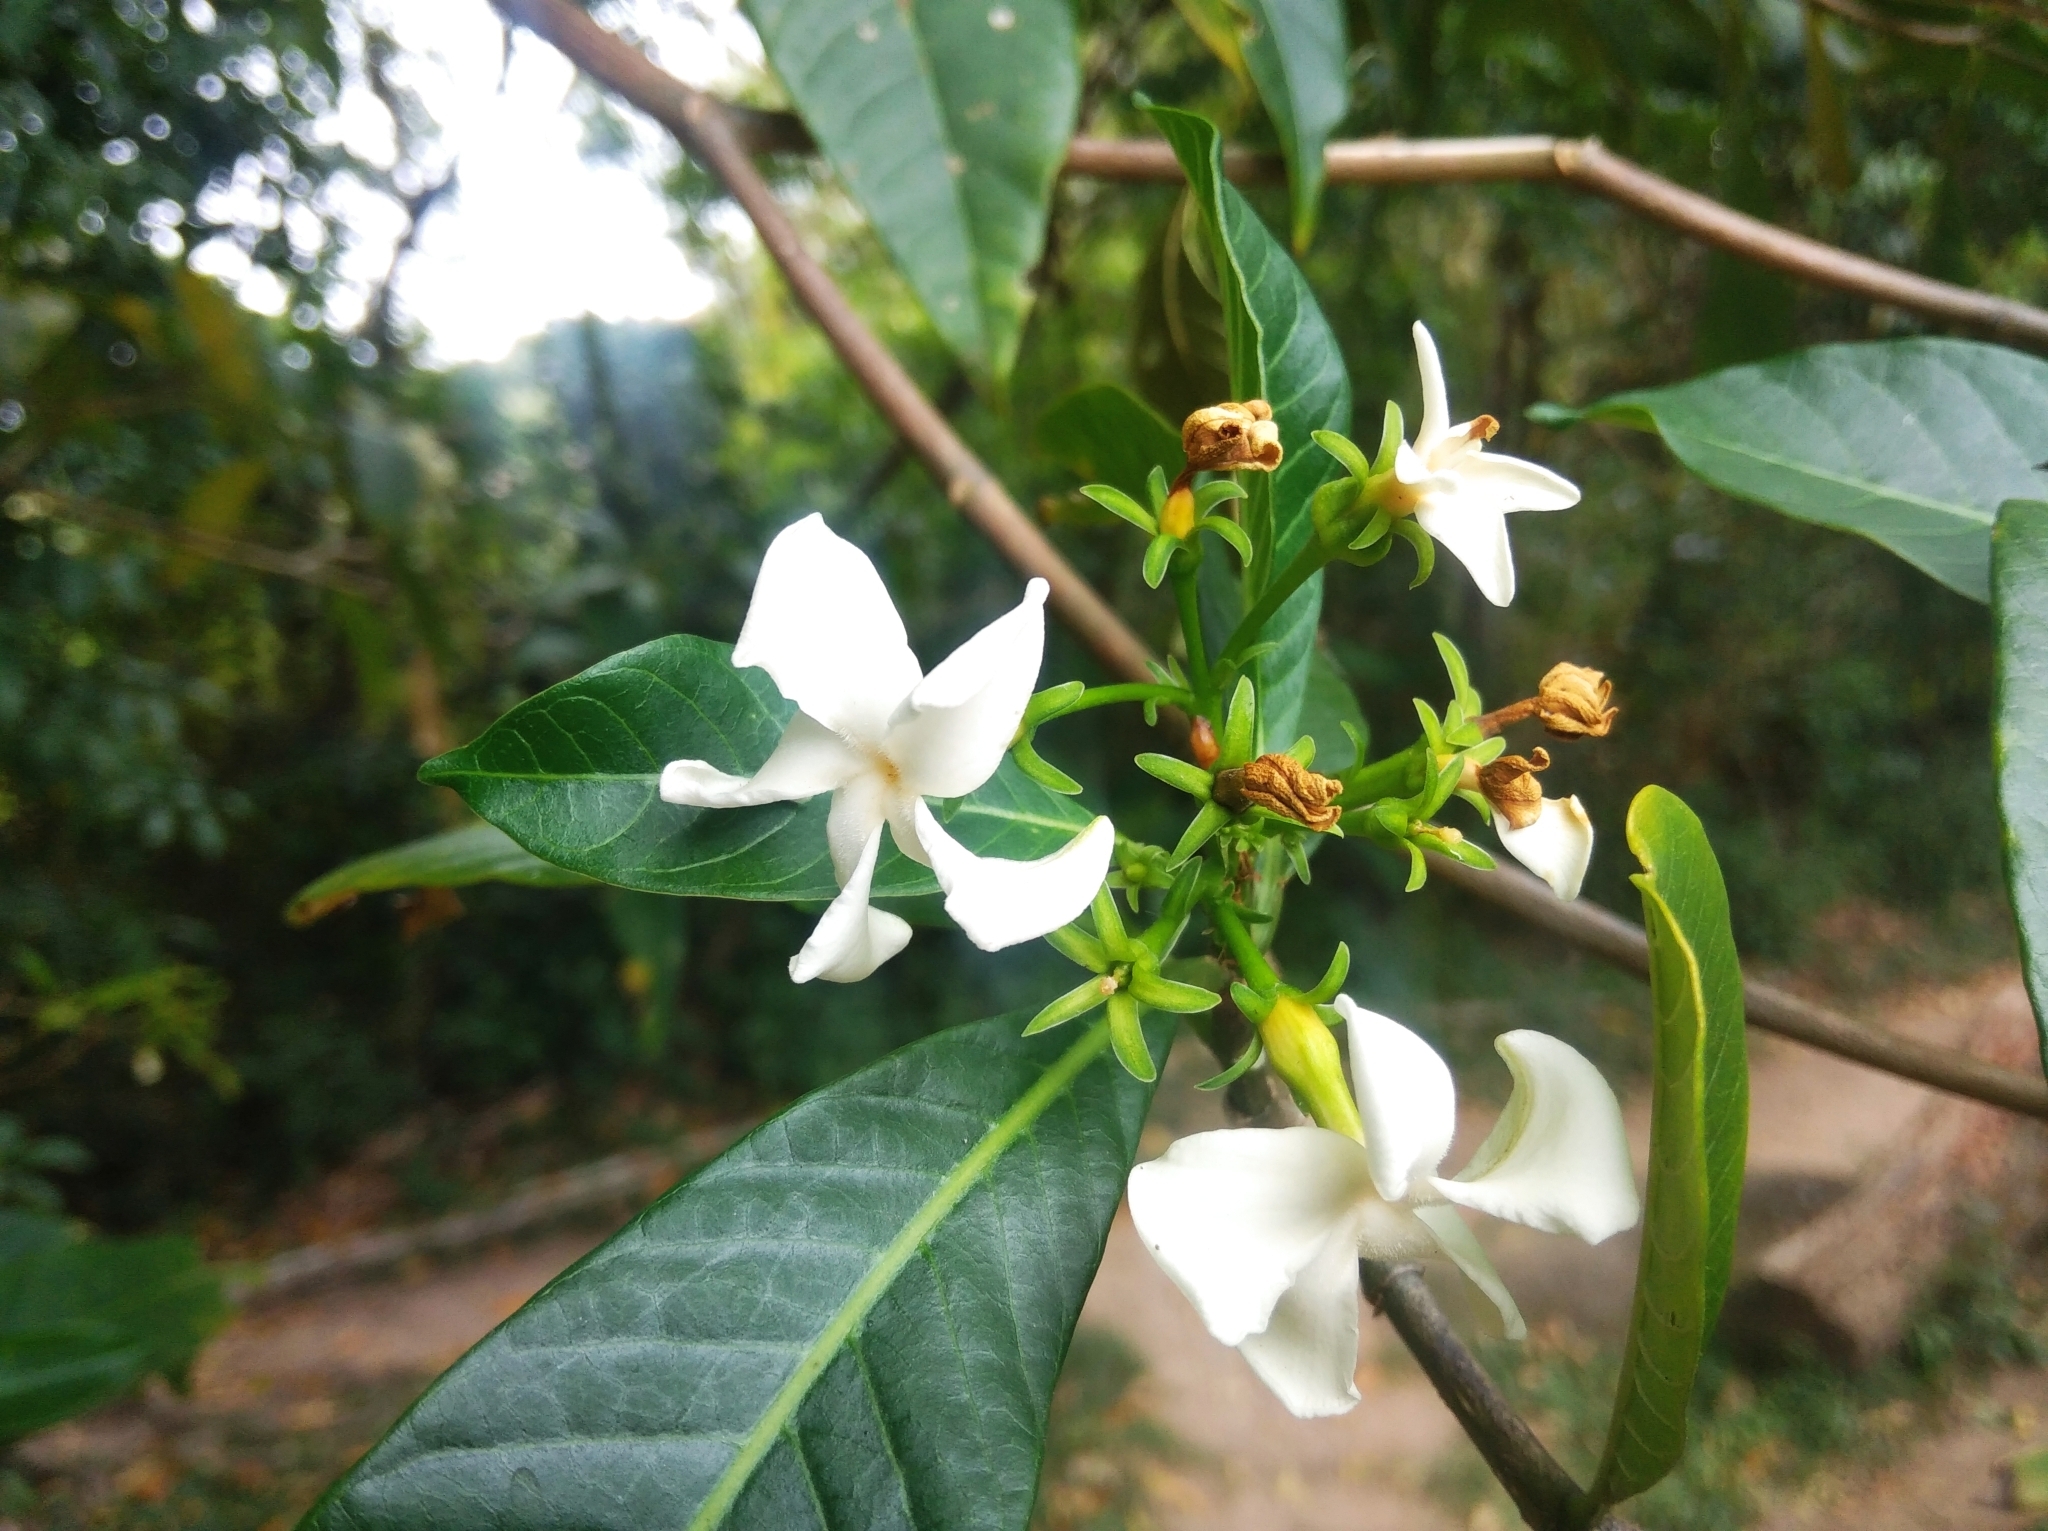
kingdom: Plantae
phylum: Tracheophyta
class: Magnoliopsida
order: Gentianales
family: Apocynaceae
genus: Tabernaemontana
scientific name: Tabernaemontana catharinensis
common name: Pinwheel-flower
